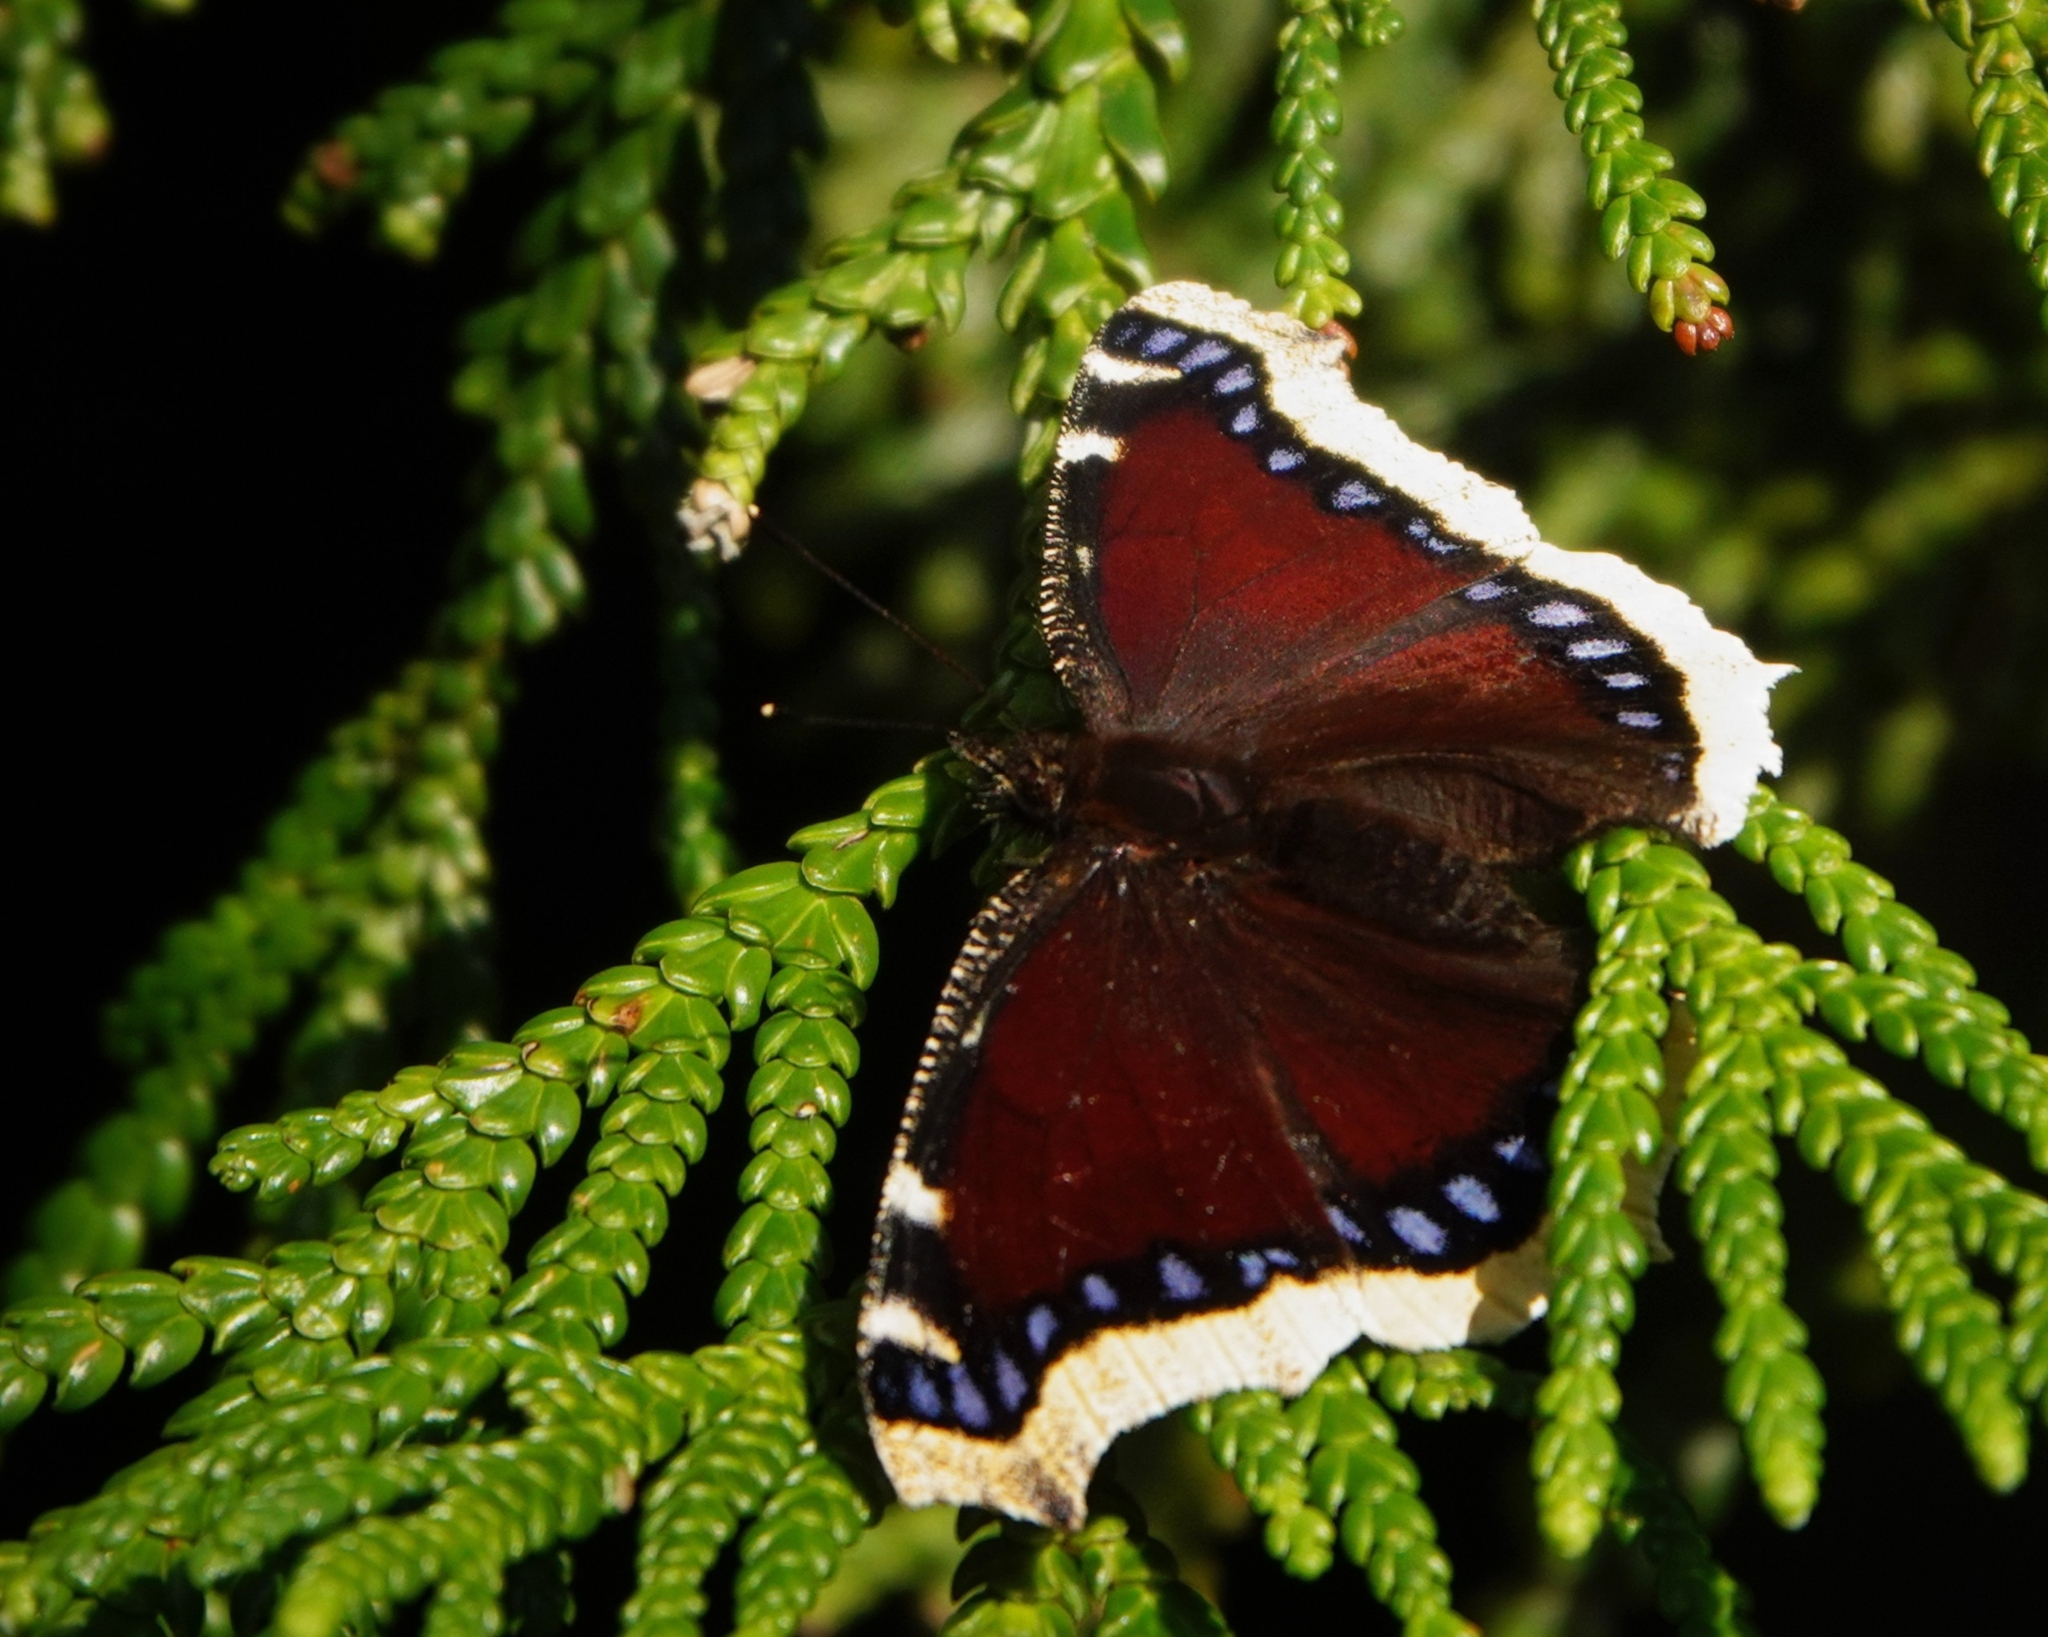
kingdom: Animalia
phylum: Arthropoda
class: Insecta
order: Lepidoptera
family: Nymphalidae
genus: Nymphalis
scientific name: Nymphalis antiopa
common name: Camberwell beauty
